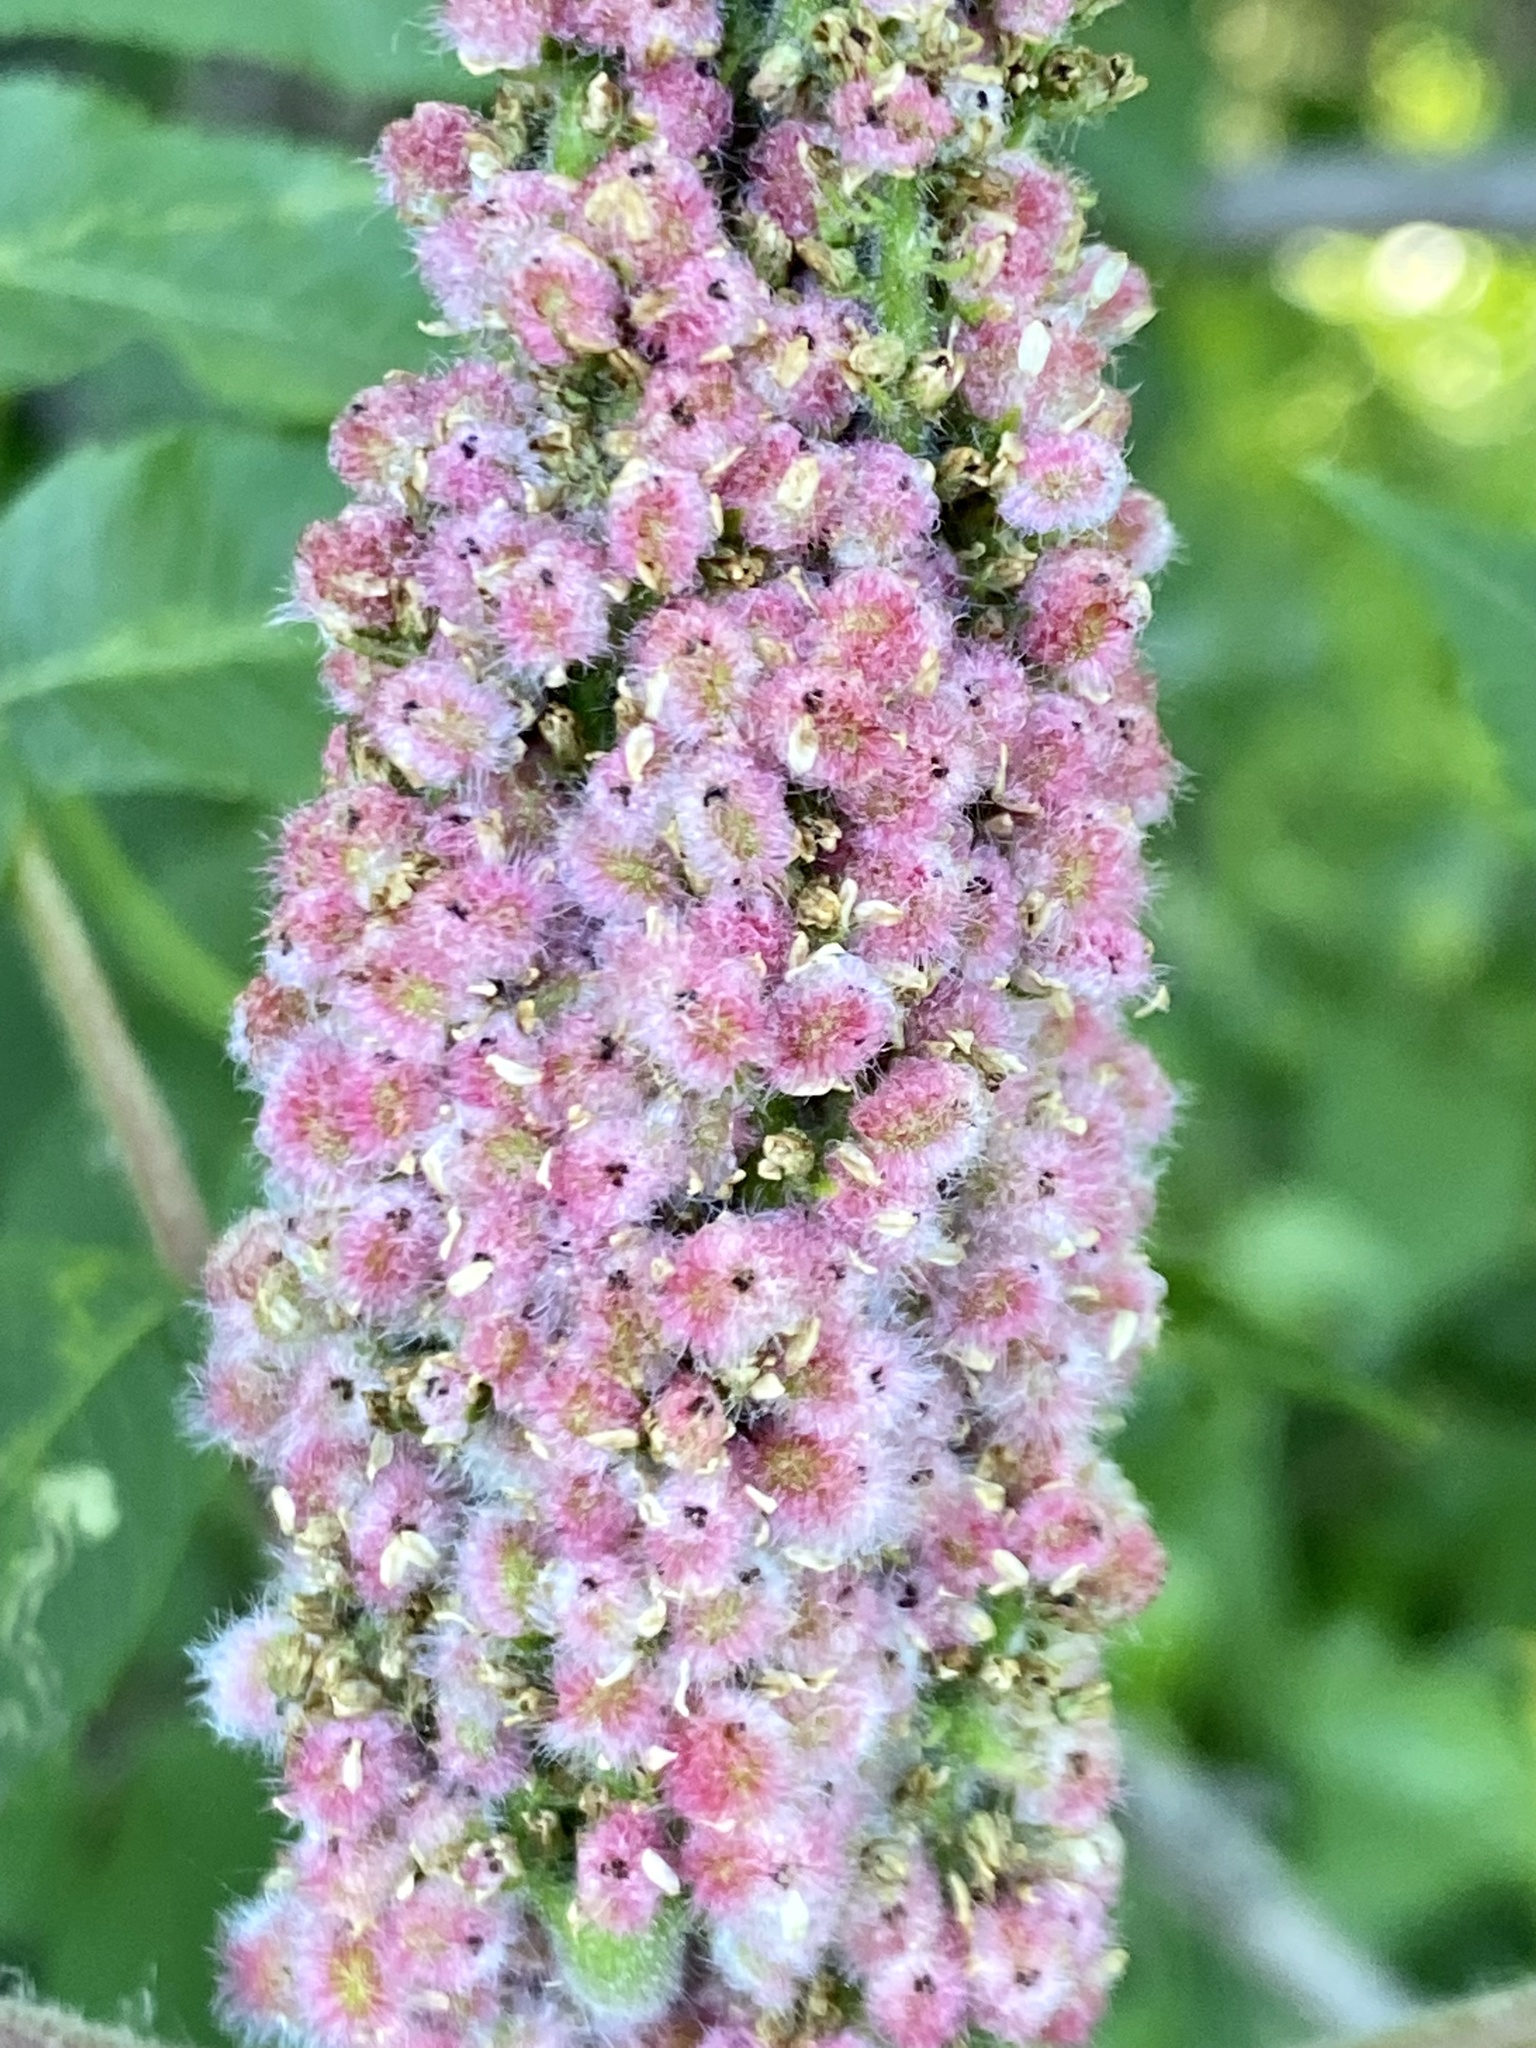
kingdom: Plantae
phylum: Tracheophyta
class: Magnoliopsida
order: Sapindales
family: Anacardiaceae
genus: Rhus
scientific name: Rhus typhina
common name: Staghorn sumac
